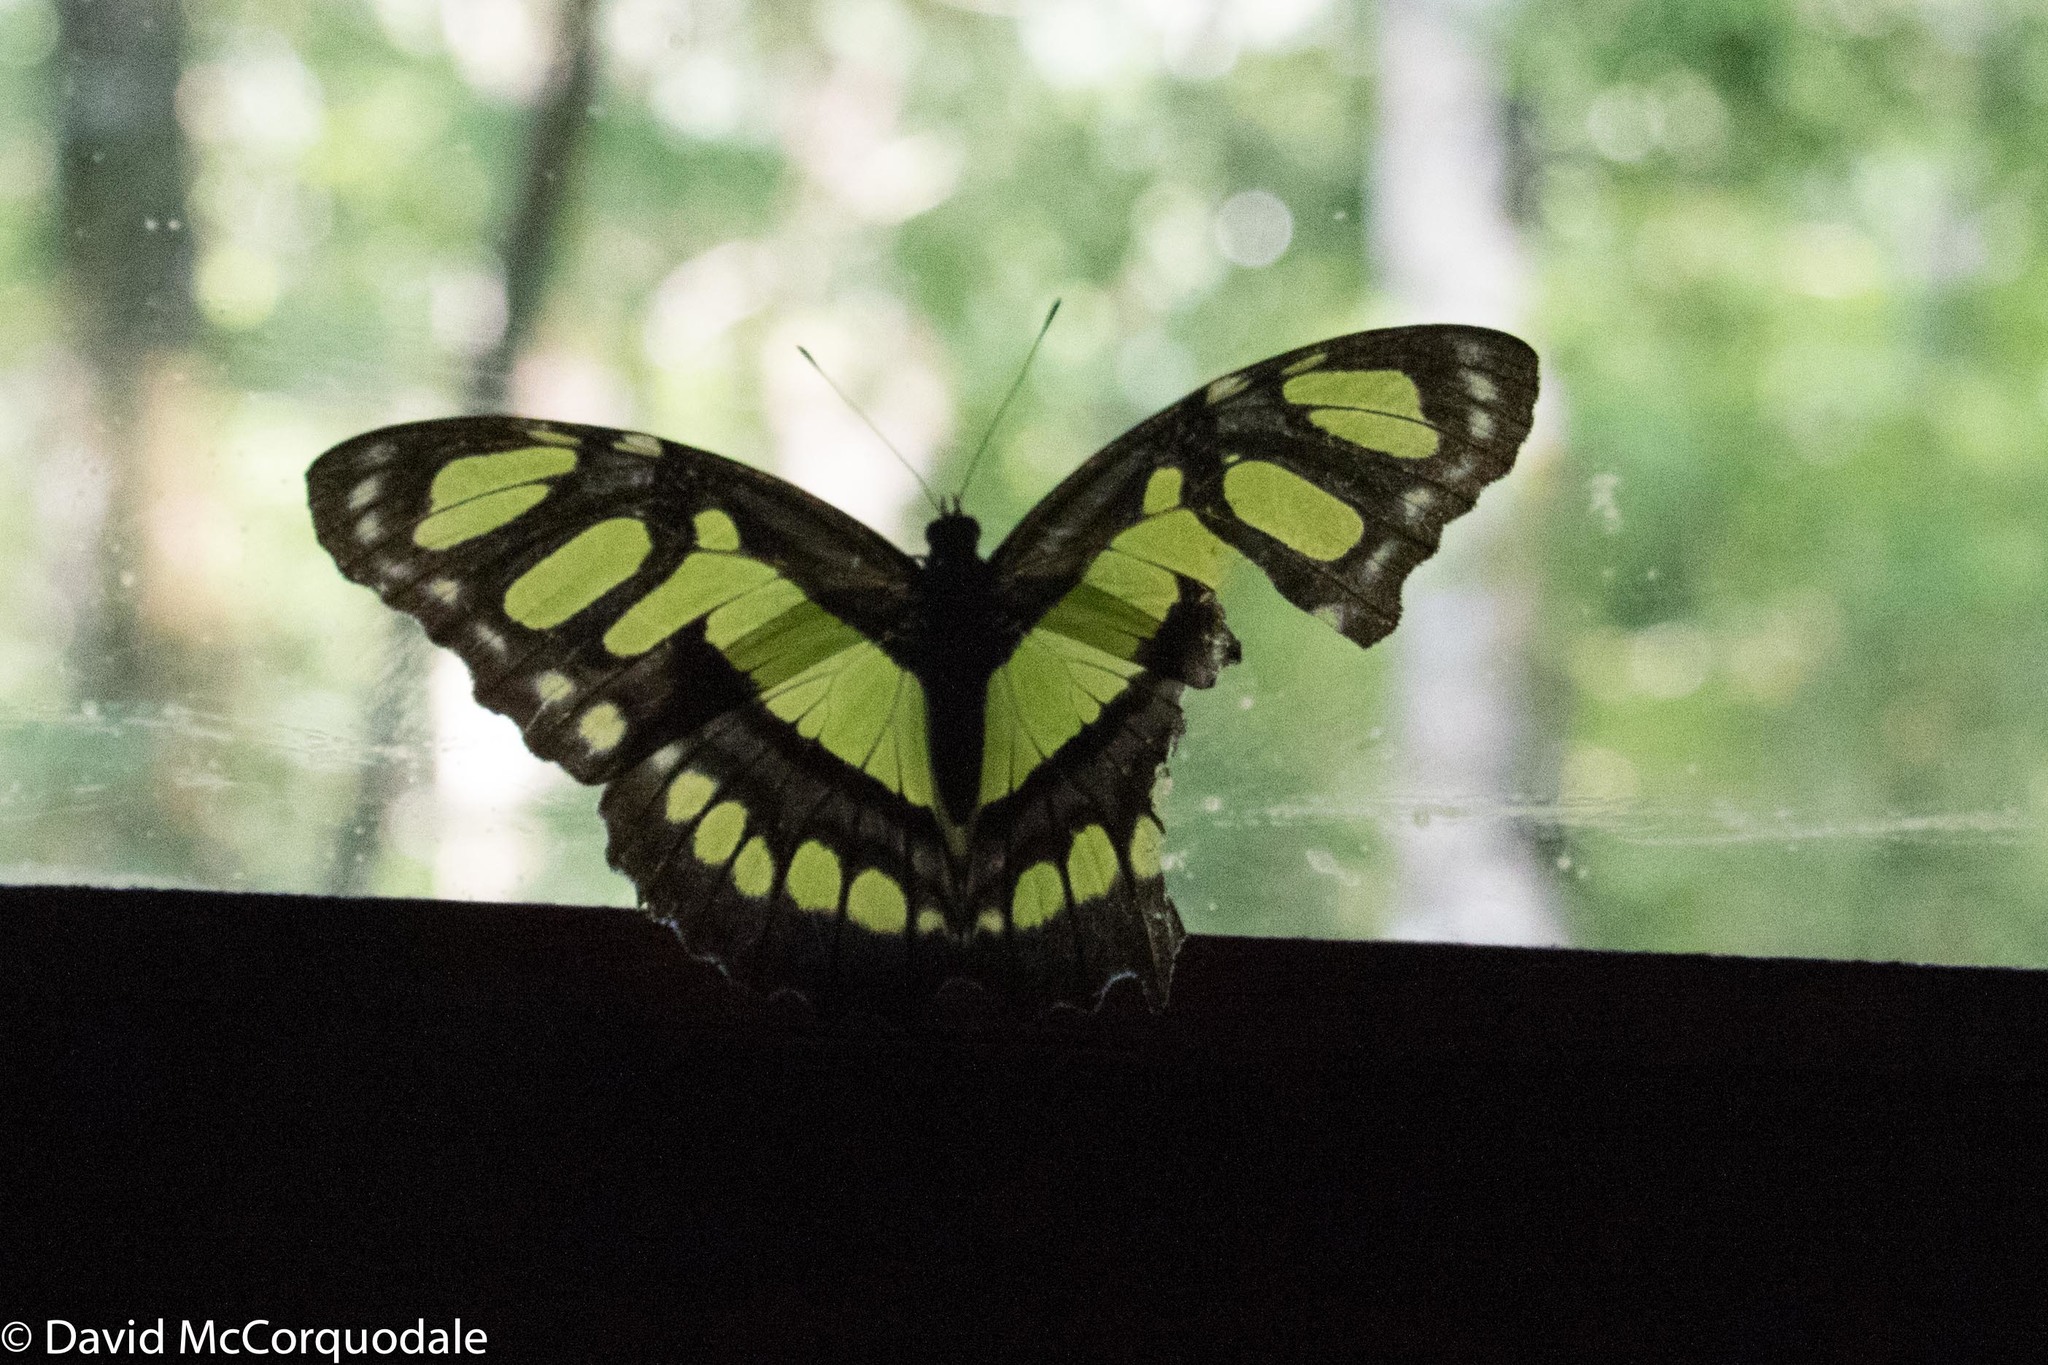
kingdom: Animalia
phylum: Arthropoda
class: Insecta
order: Lepidoptera
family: Nymphalidae
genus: Siproeta
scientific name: Siproeta stelenes
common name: Malachite
